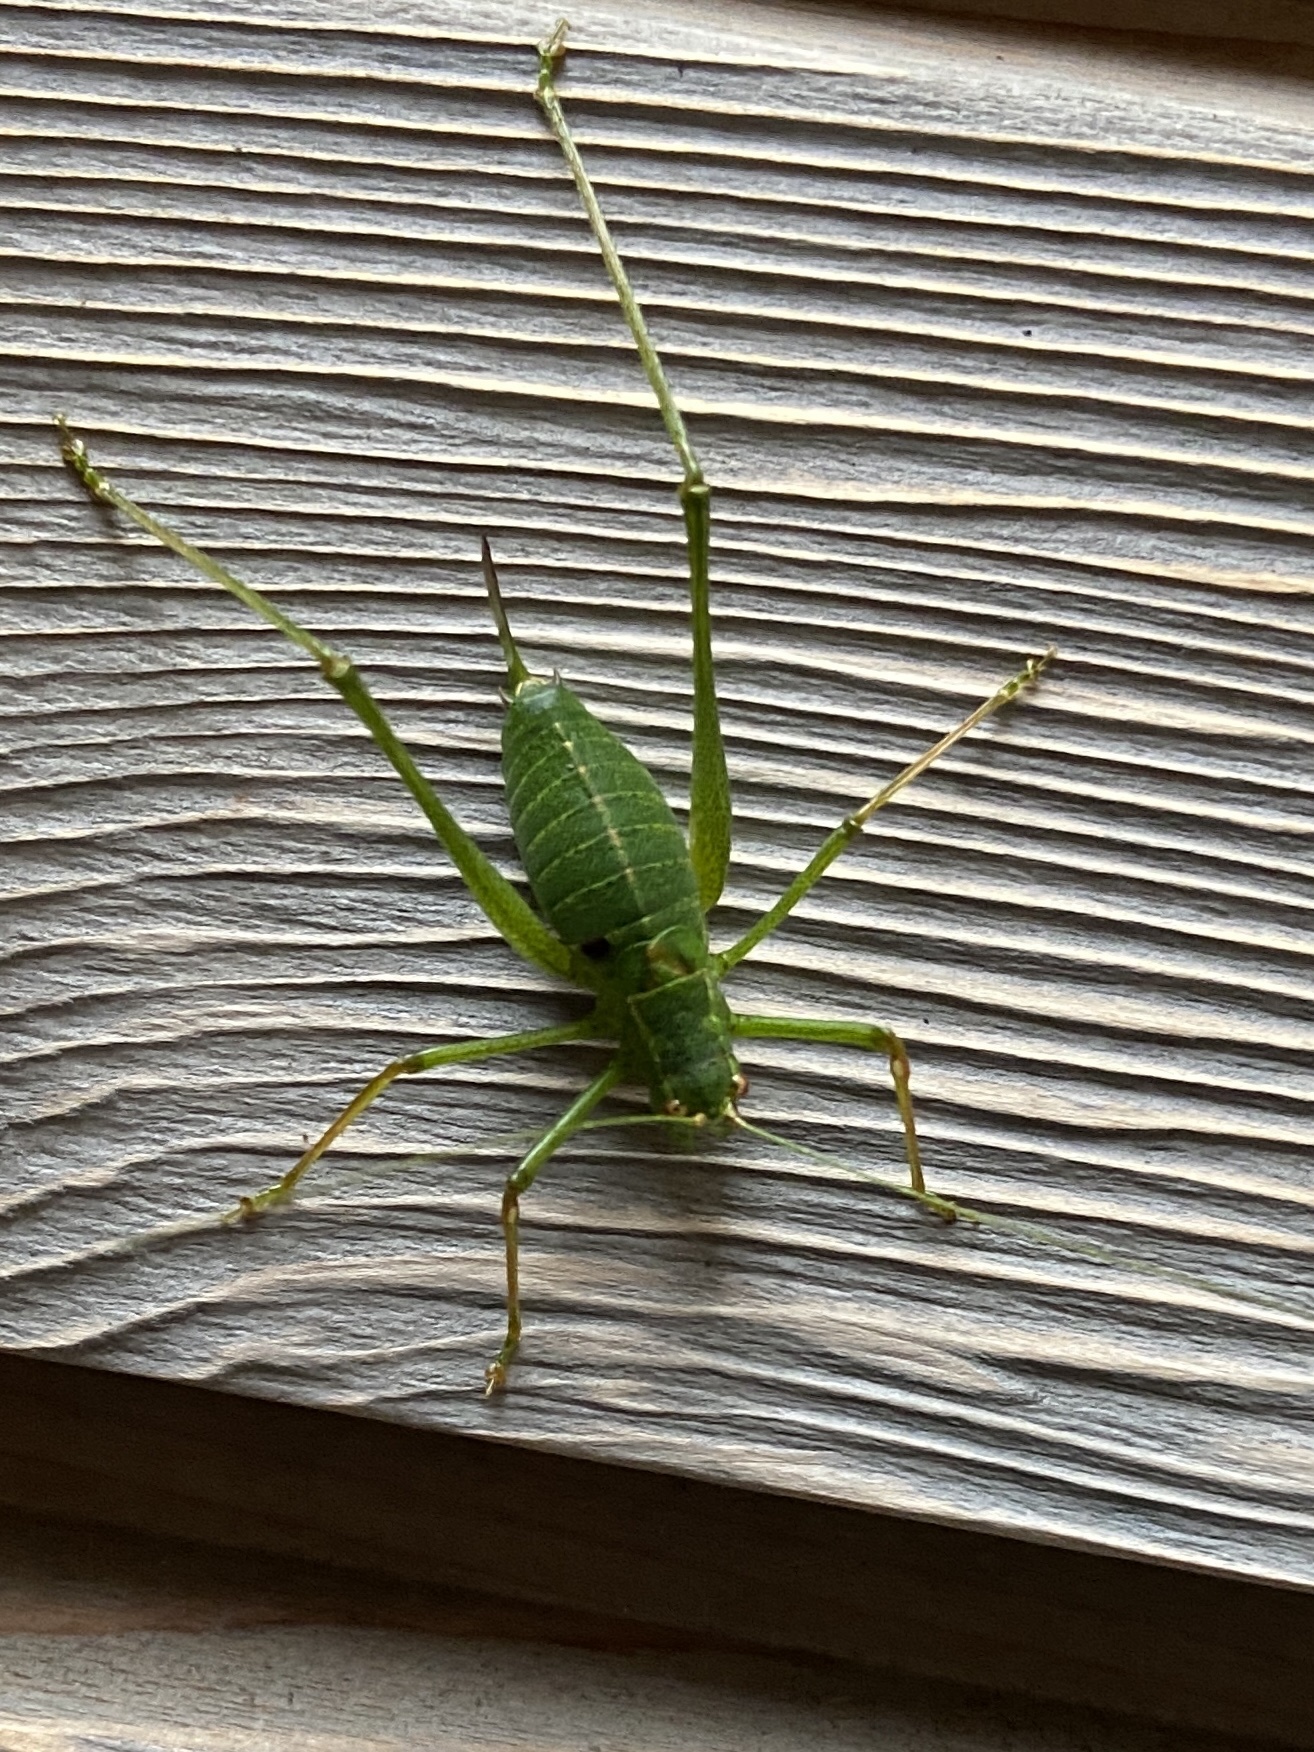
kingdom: Animalia
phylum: Arthropoda
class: Insecta
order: Orthoptera
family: Tettigoniidae
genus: Leptophyes
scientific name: Leptophyes punctatissima
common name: Speckled bush-cricket
